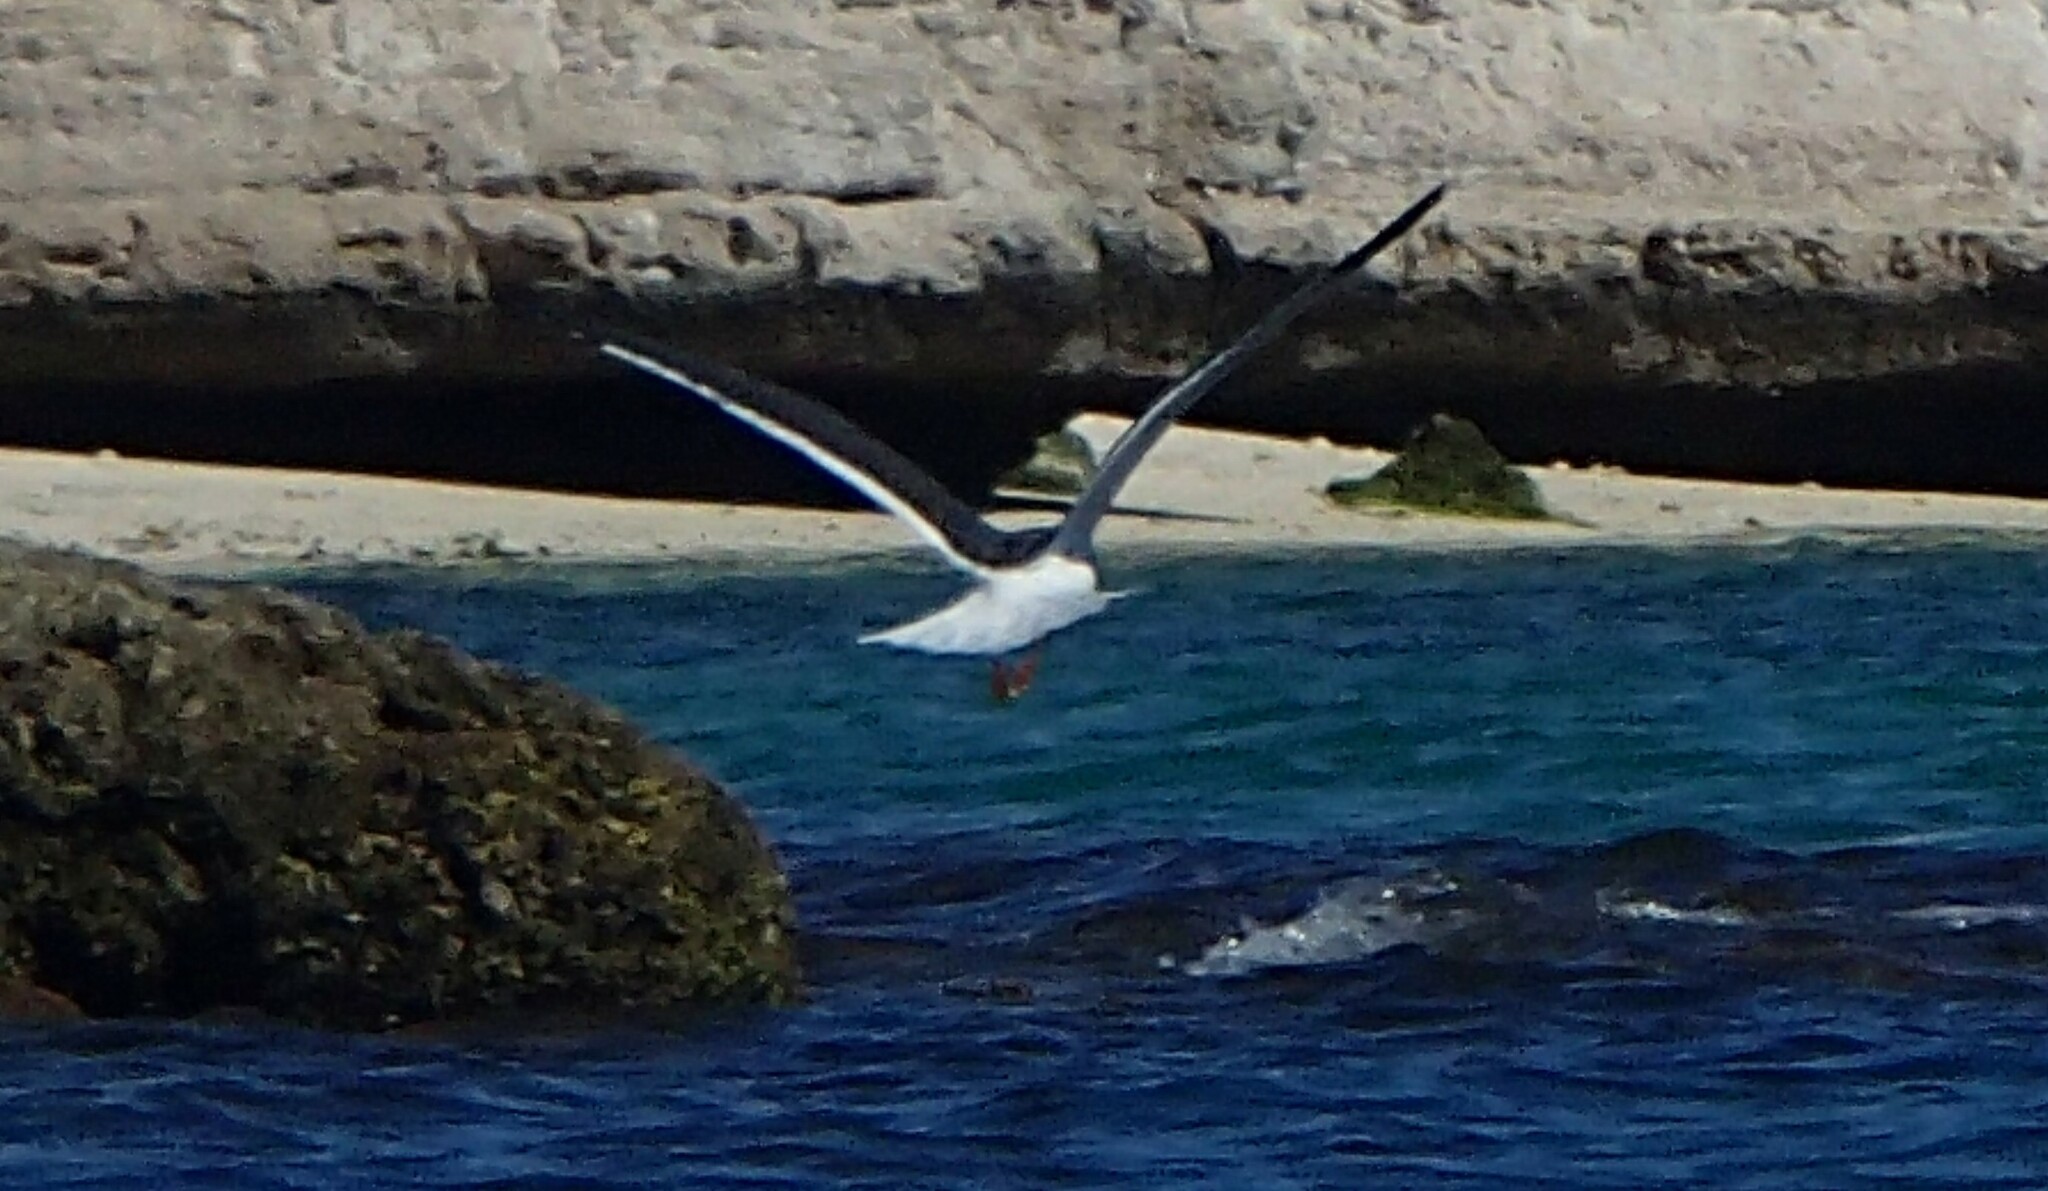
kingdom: Animalia
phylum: Chordata
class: Aves
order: Charadriiformes
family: Laridae
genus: Larus
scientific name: Larus livens
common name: Yellow-footed gull
